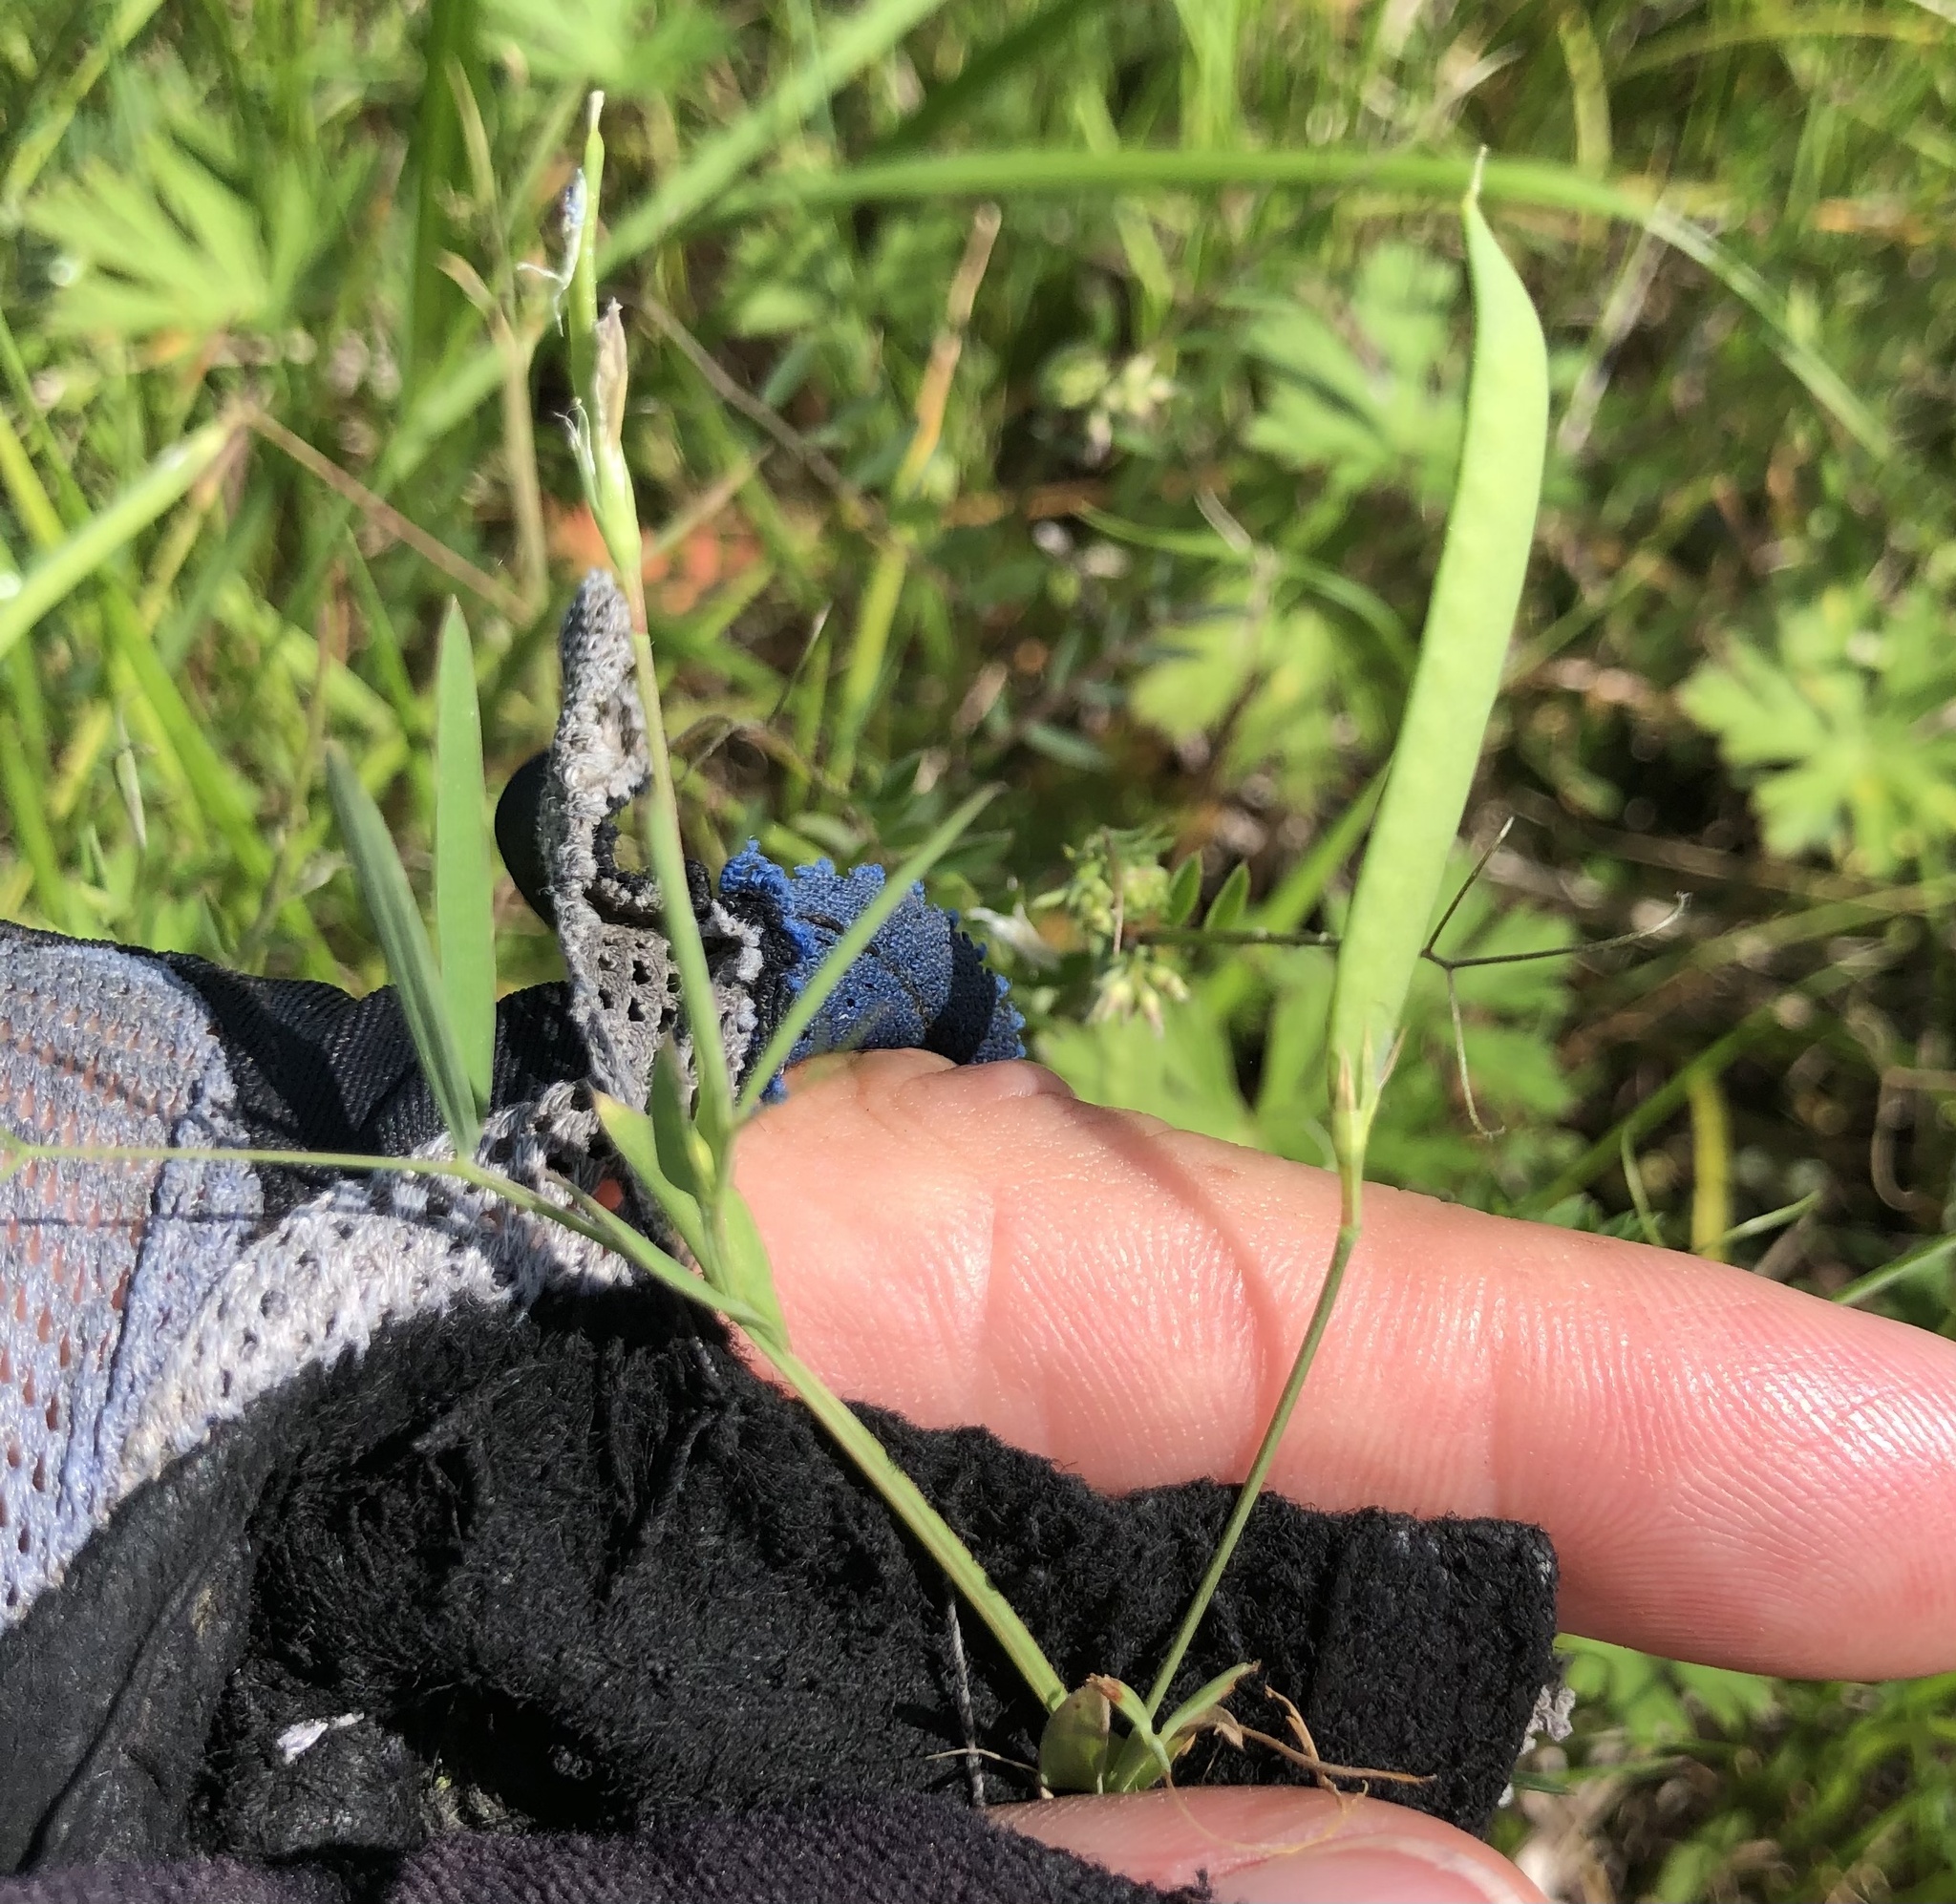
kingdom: Plantae
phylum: Tracheophyta
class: Magnoliopsida
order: Fabales
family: Fabaceae
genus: Lathyrus
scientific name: Lathyrus pusillus
